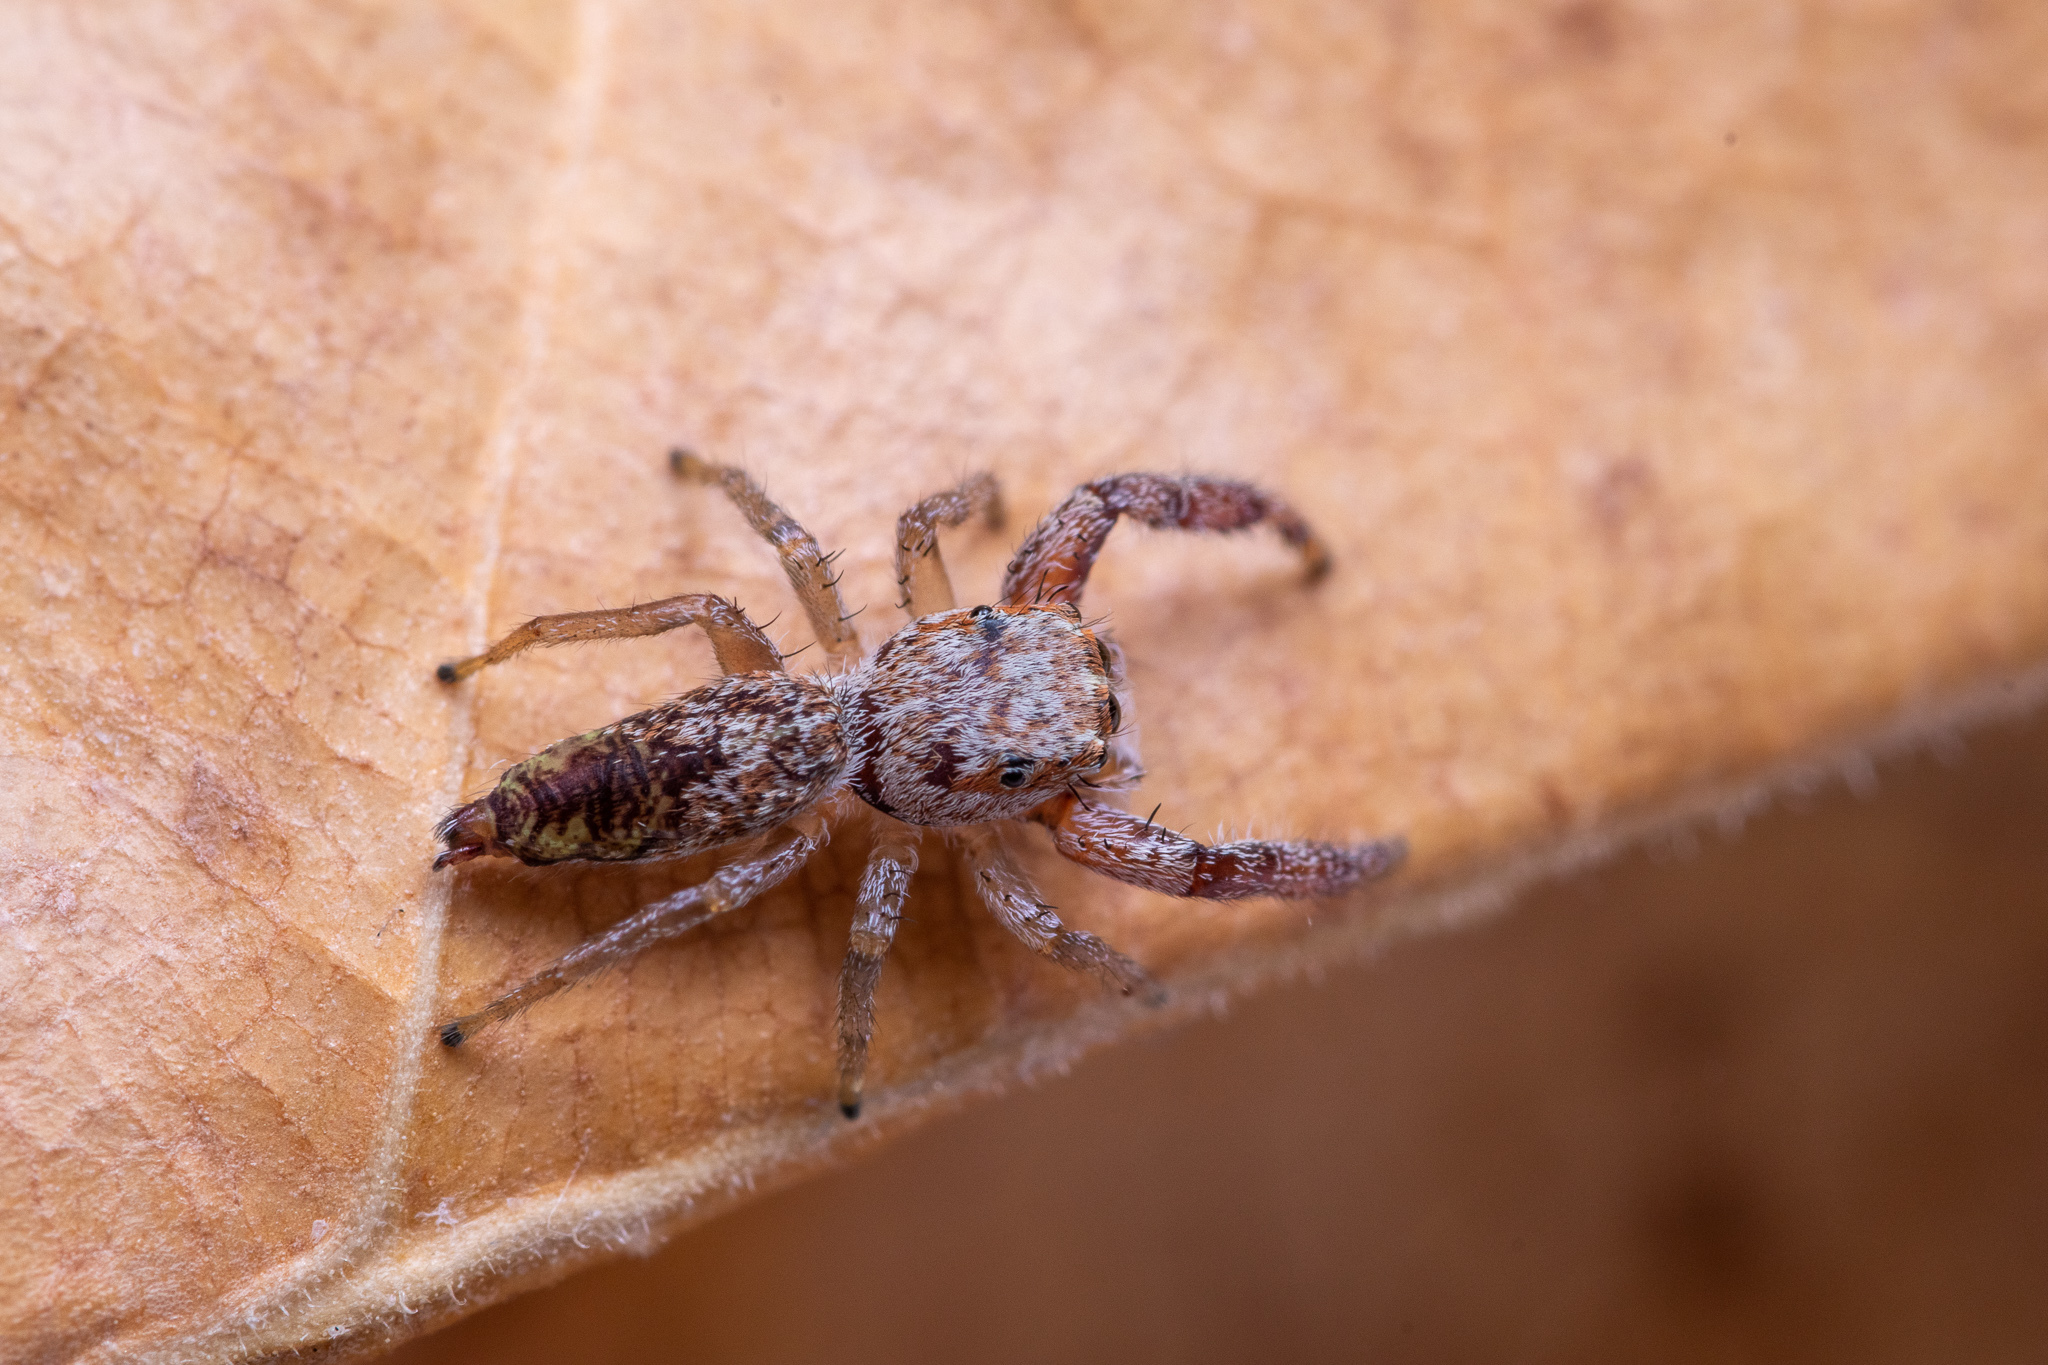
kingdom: Animalia
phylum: Arthropoda
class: Arachnida
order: Araneae
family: Salticidae
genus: Hentzia
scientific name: Hentzia palmarum
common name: Common hentz jumping spider
